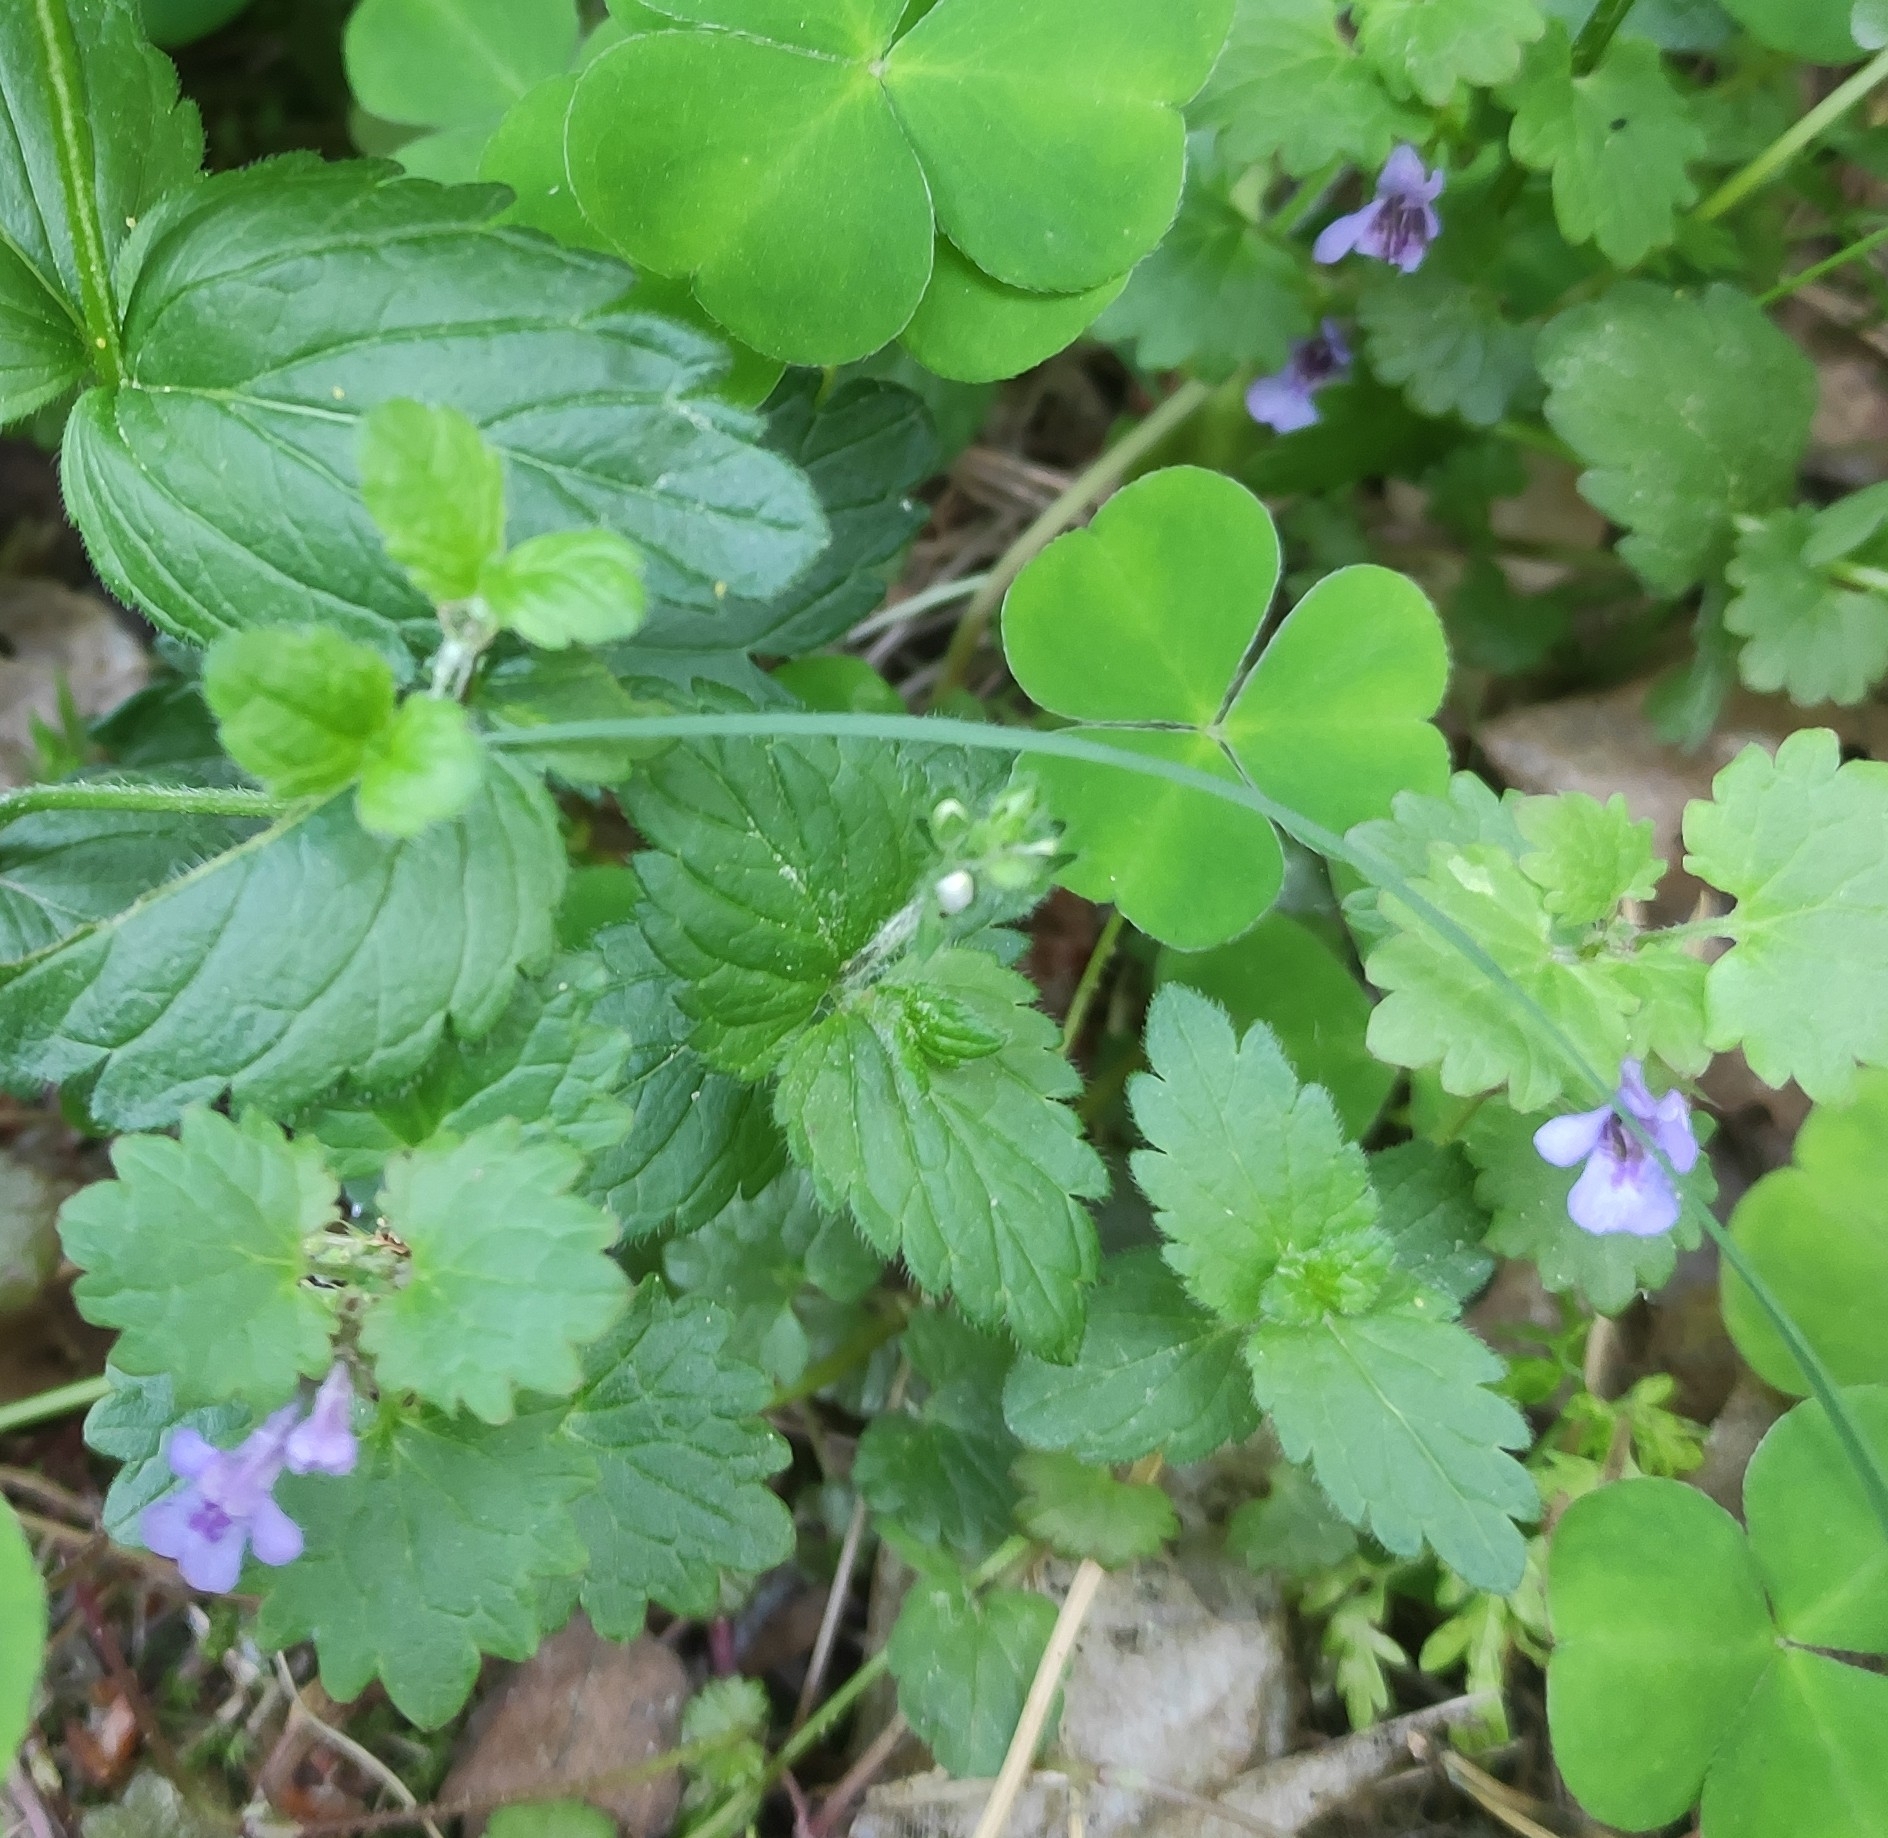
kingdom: Plantae
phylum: Tracheophyta
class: Magnoliopsida
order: Lamiales
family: Lamiaceae
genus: Glechoma
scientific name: Glechoma hederacea
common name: Ground ivy
